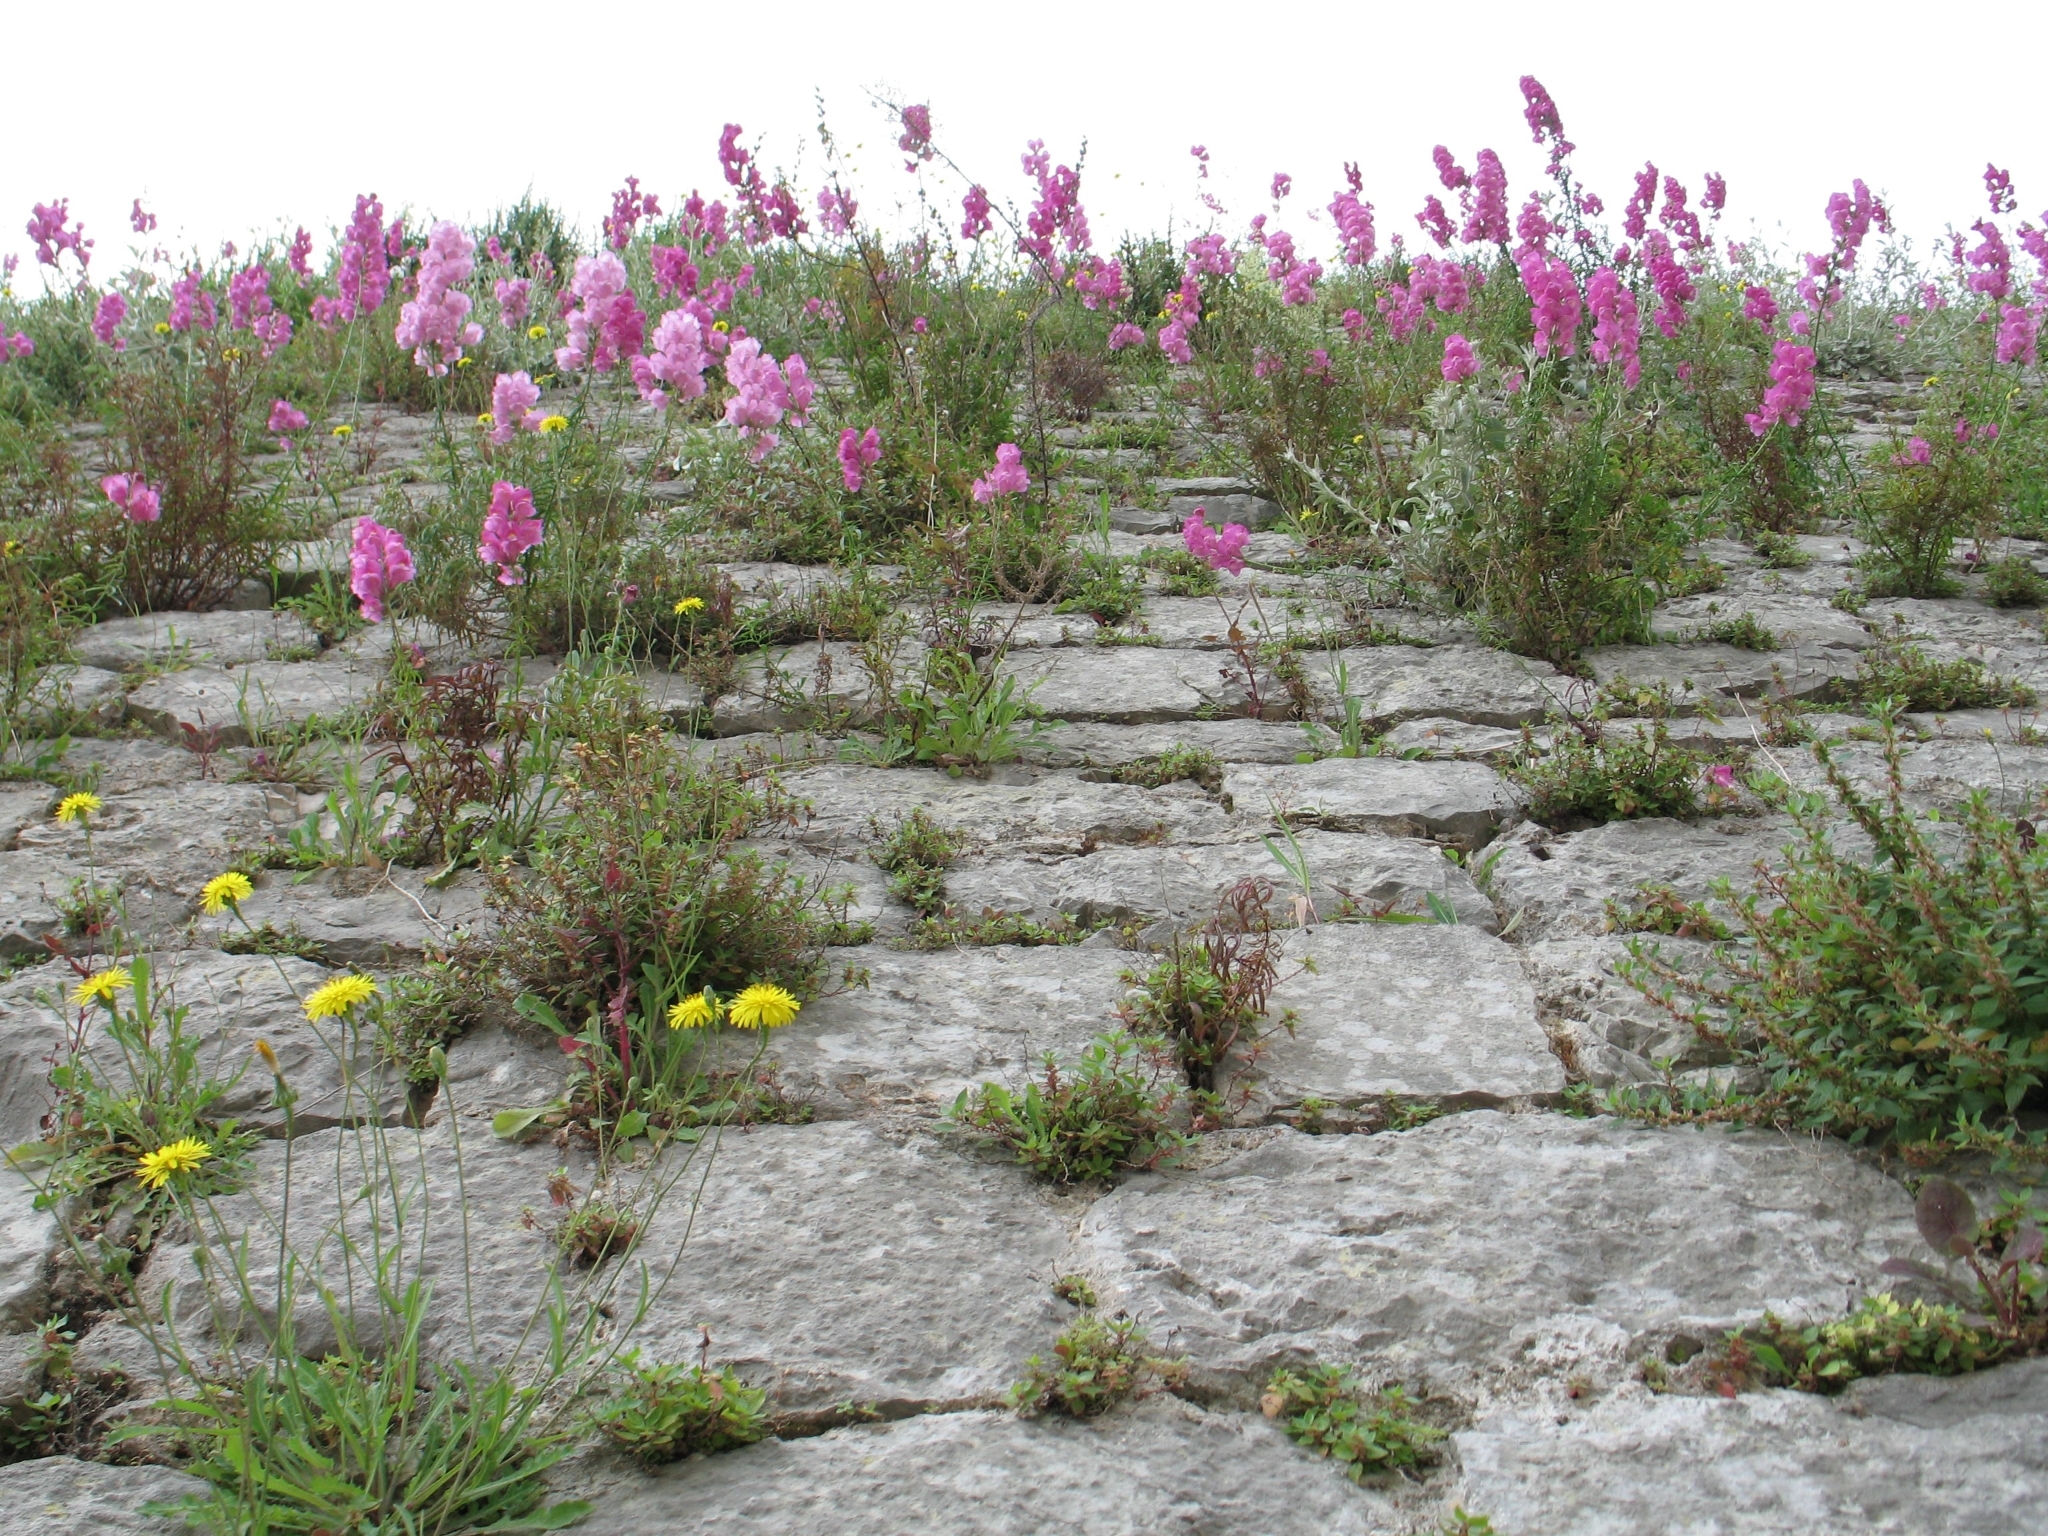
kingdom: Plantae
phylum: Tracheophyta
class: Magnoliopsida
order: Lamiales
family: Plantaginaceae
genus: Antirrhinum
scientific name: Antirrhinum majus
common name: Snapdragon
